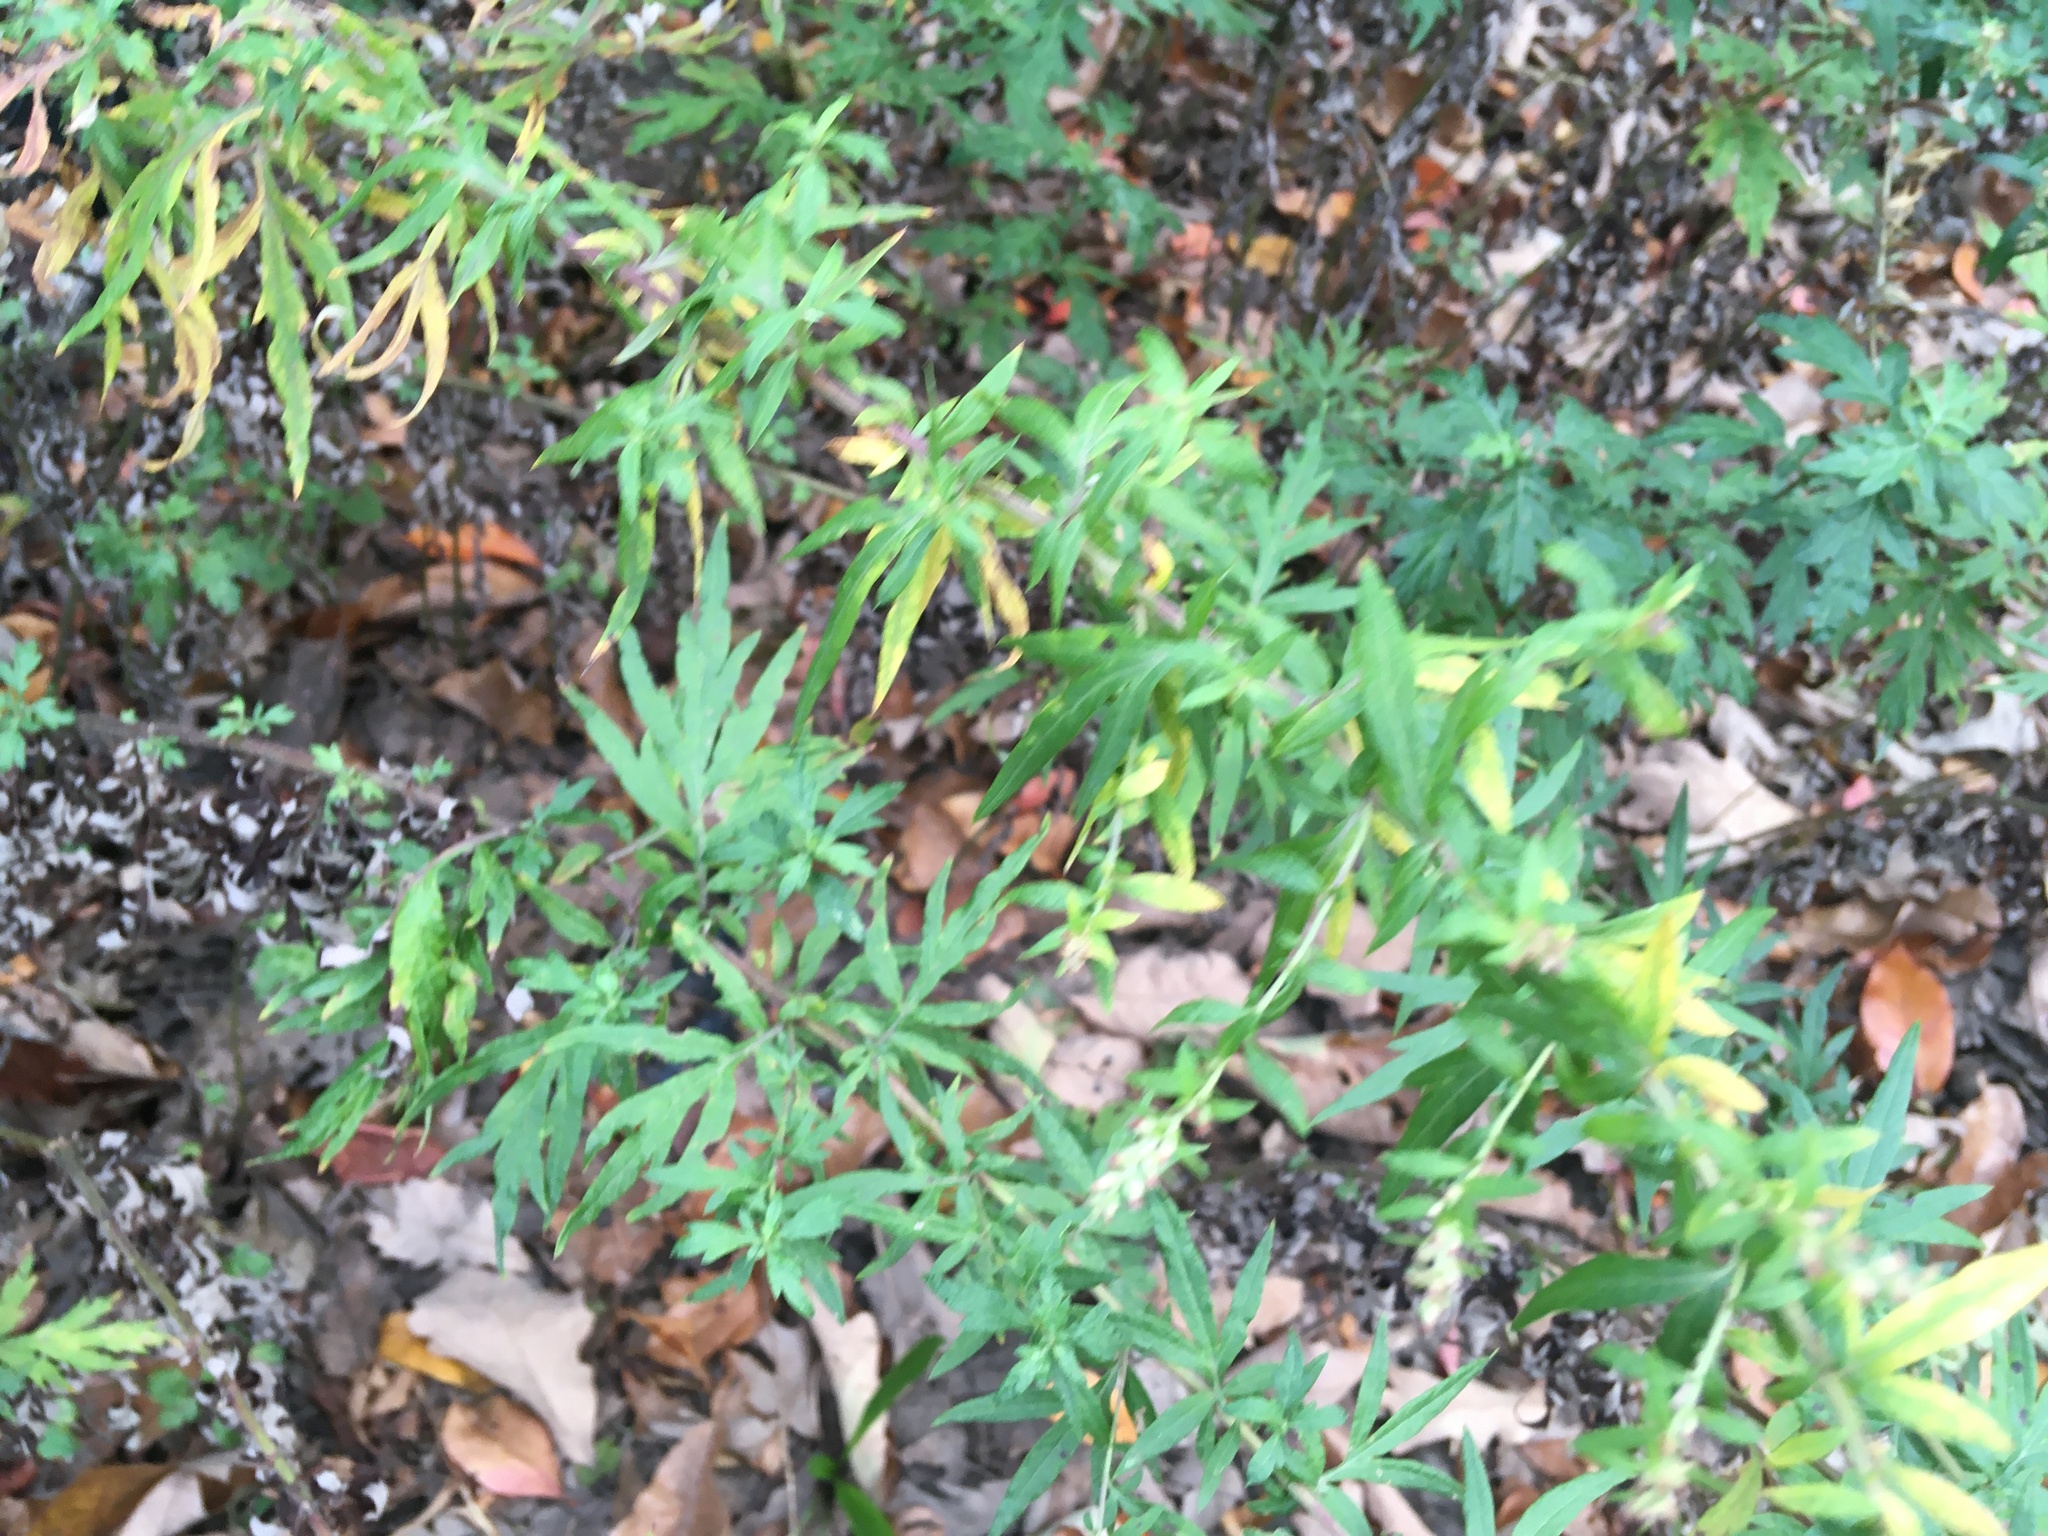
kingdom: Plantae
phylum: Tracheophyta
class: Magnoliopsida
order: Asterales
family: Asteraceae
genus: Artemisia
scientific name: Artemisia vulgaris
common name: Mugwort
